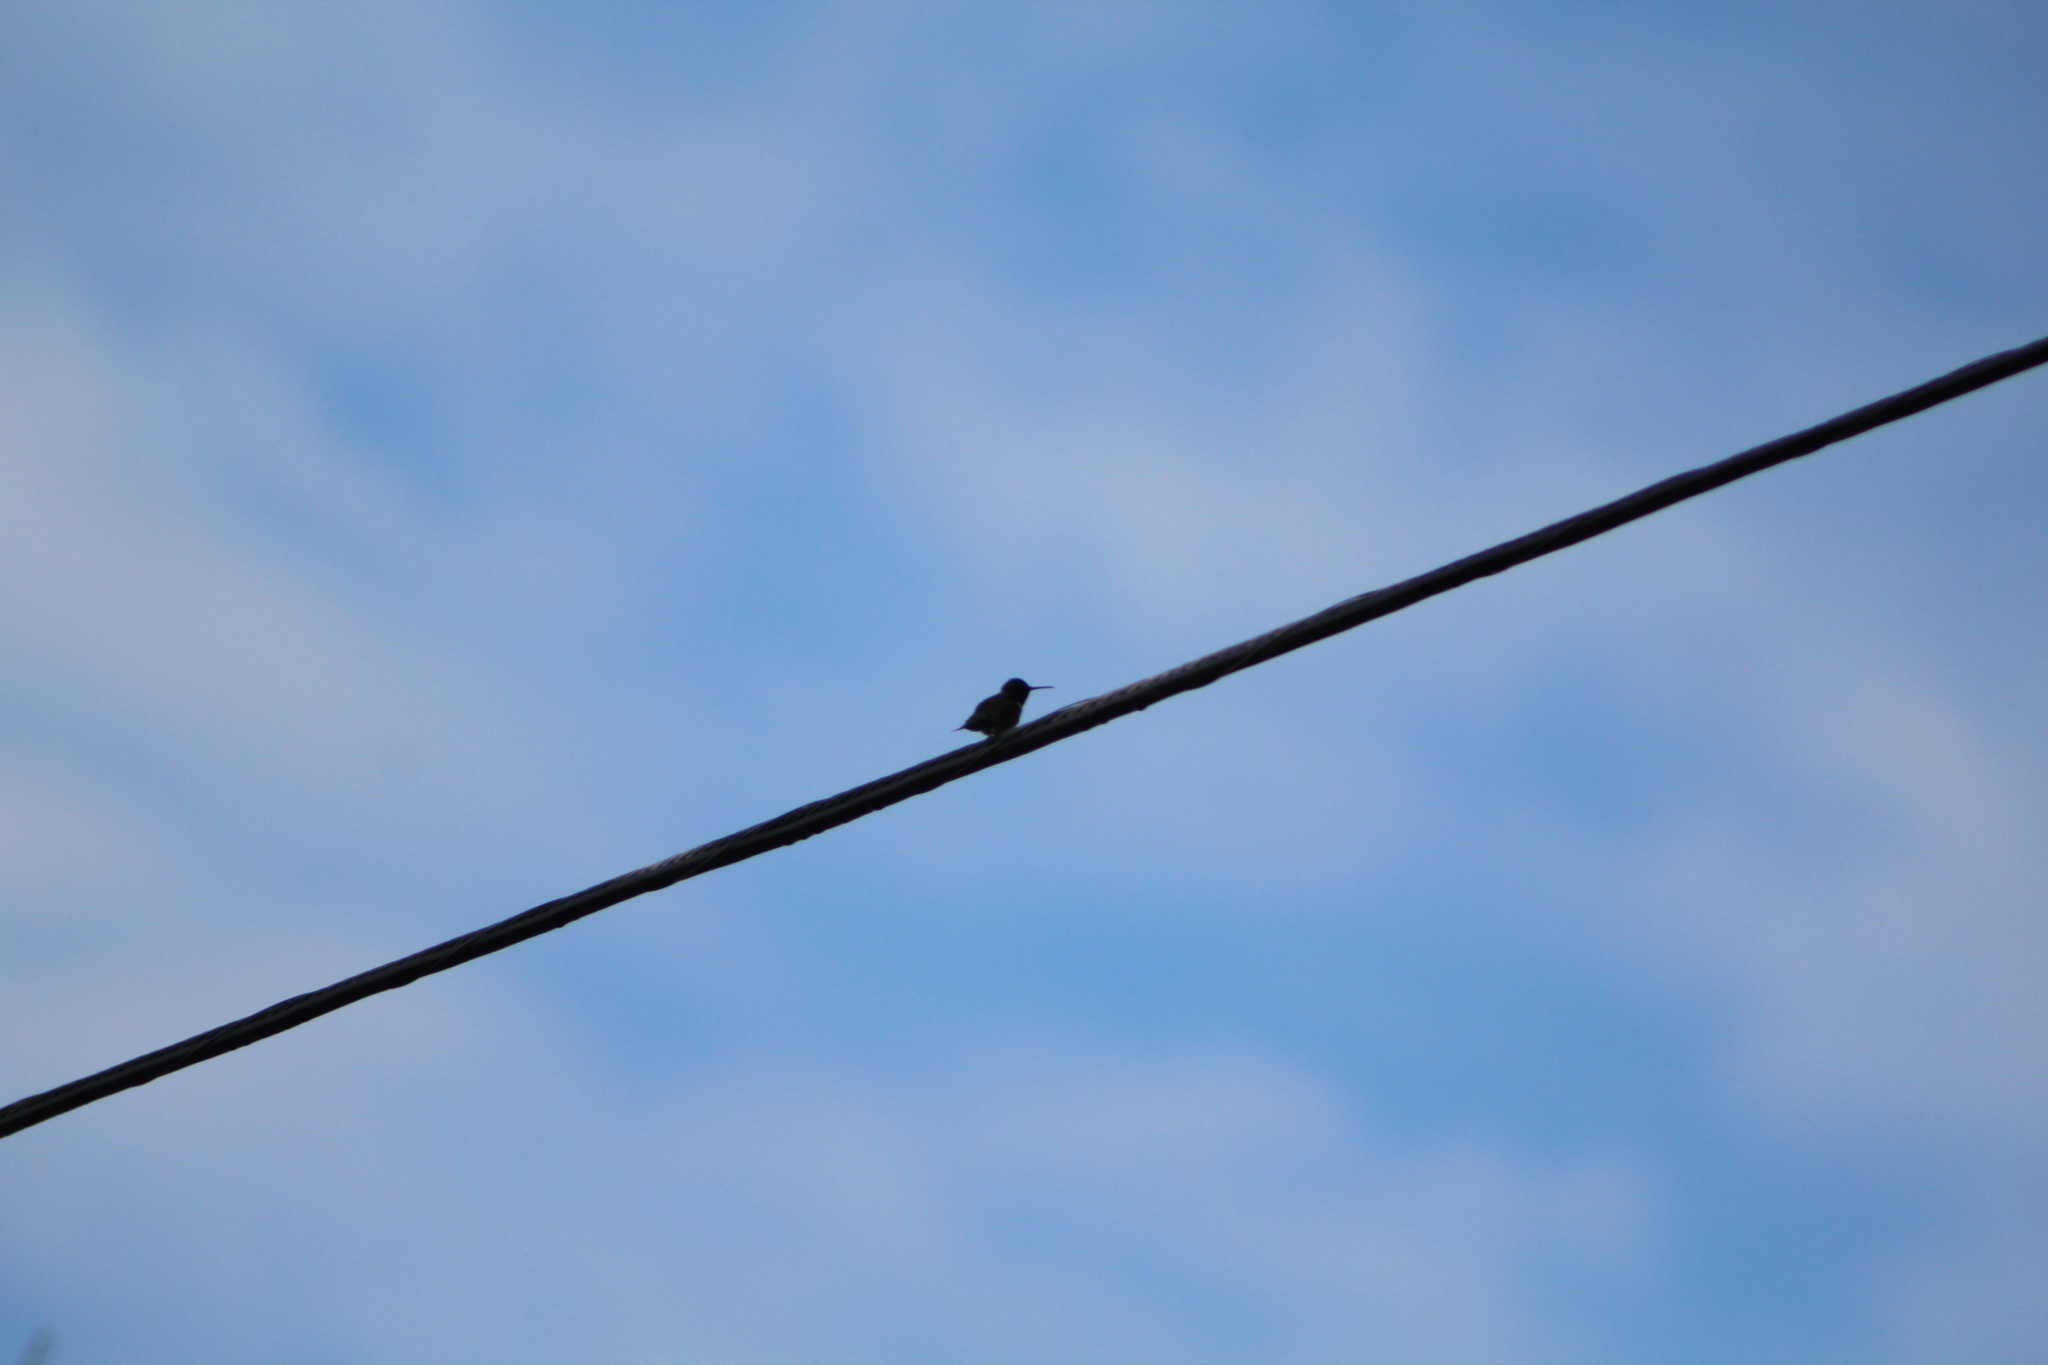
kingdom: Animalia
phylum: Chordata
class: Aves
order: Apodiformes
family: Trochilidae
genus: Archilochus
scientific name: Archilochus colubris
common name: Ruby-throated hummingbird
